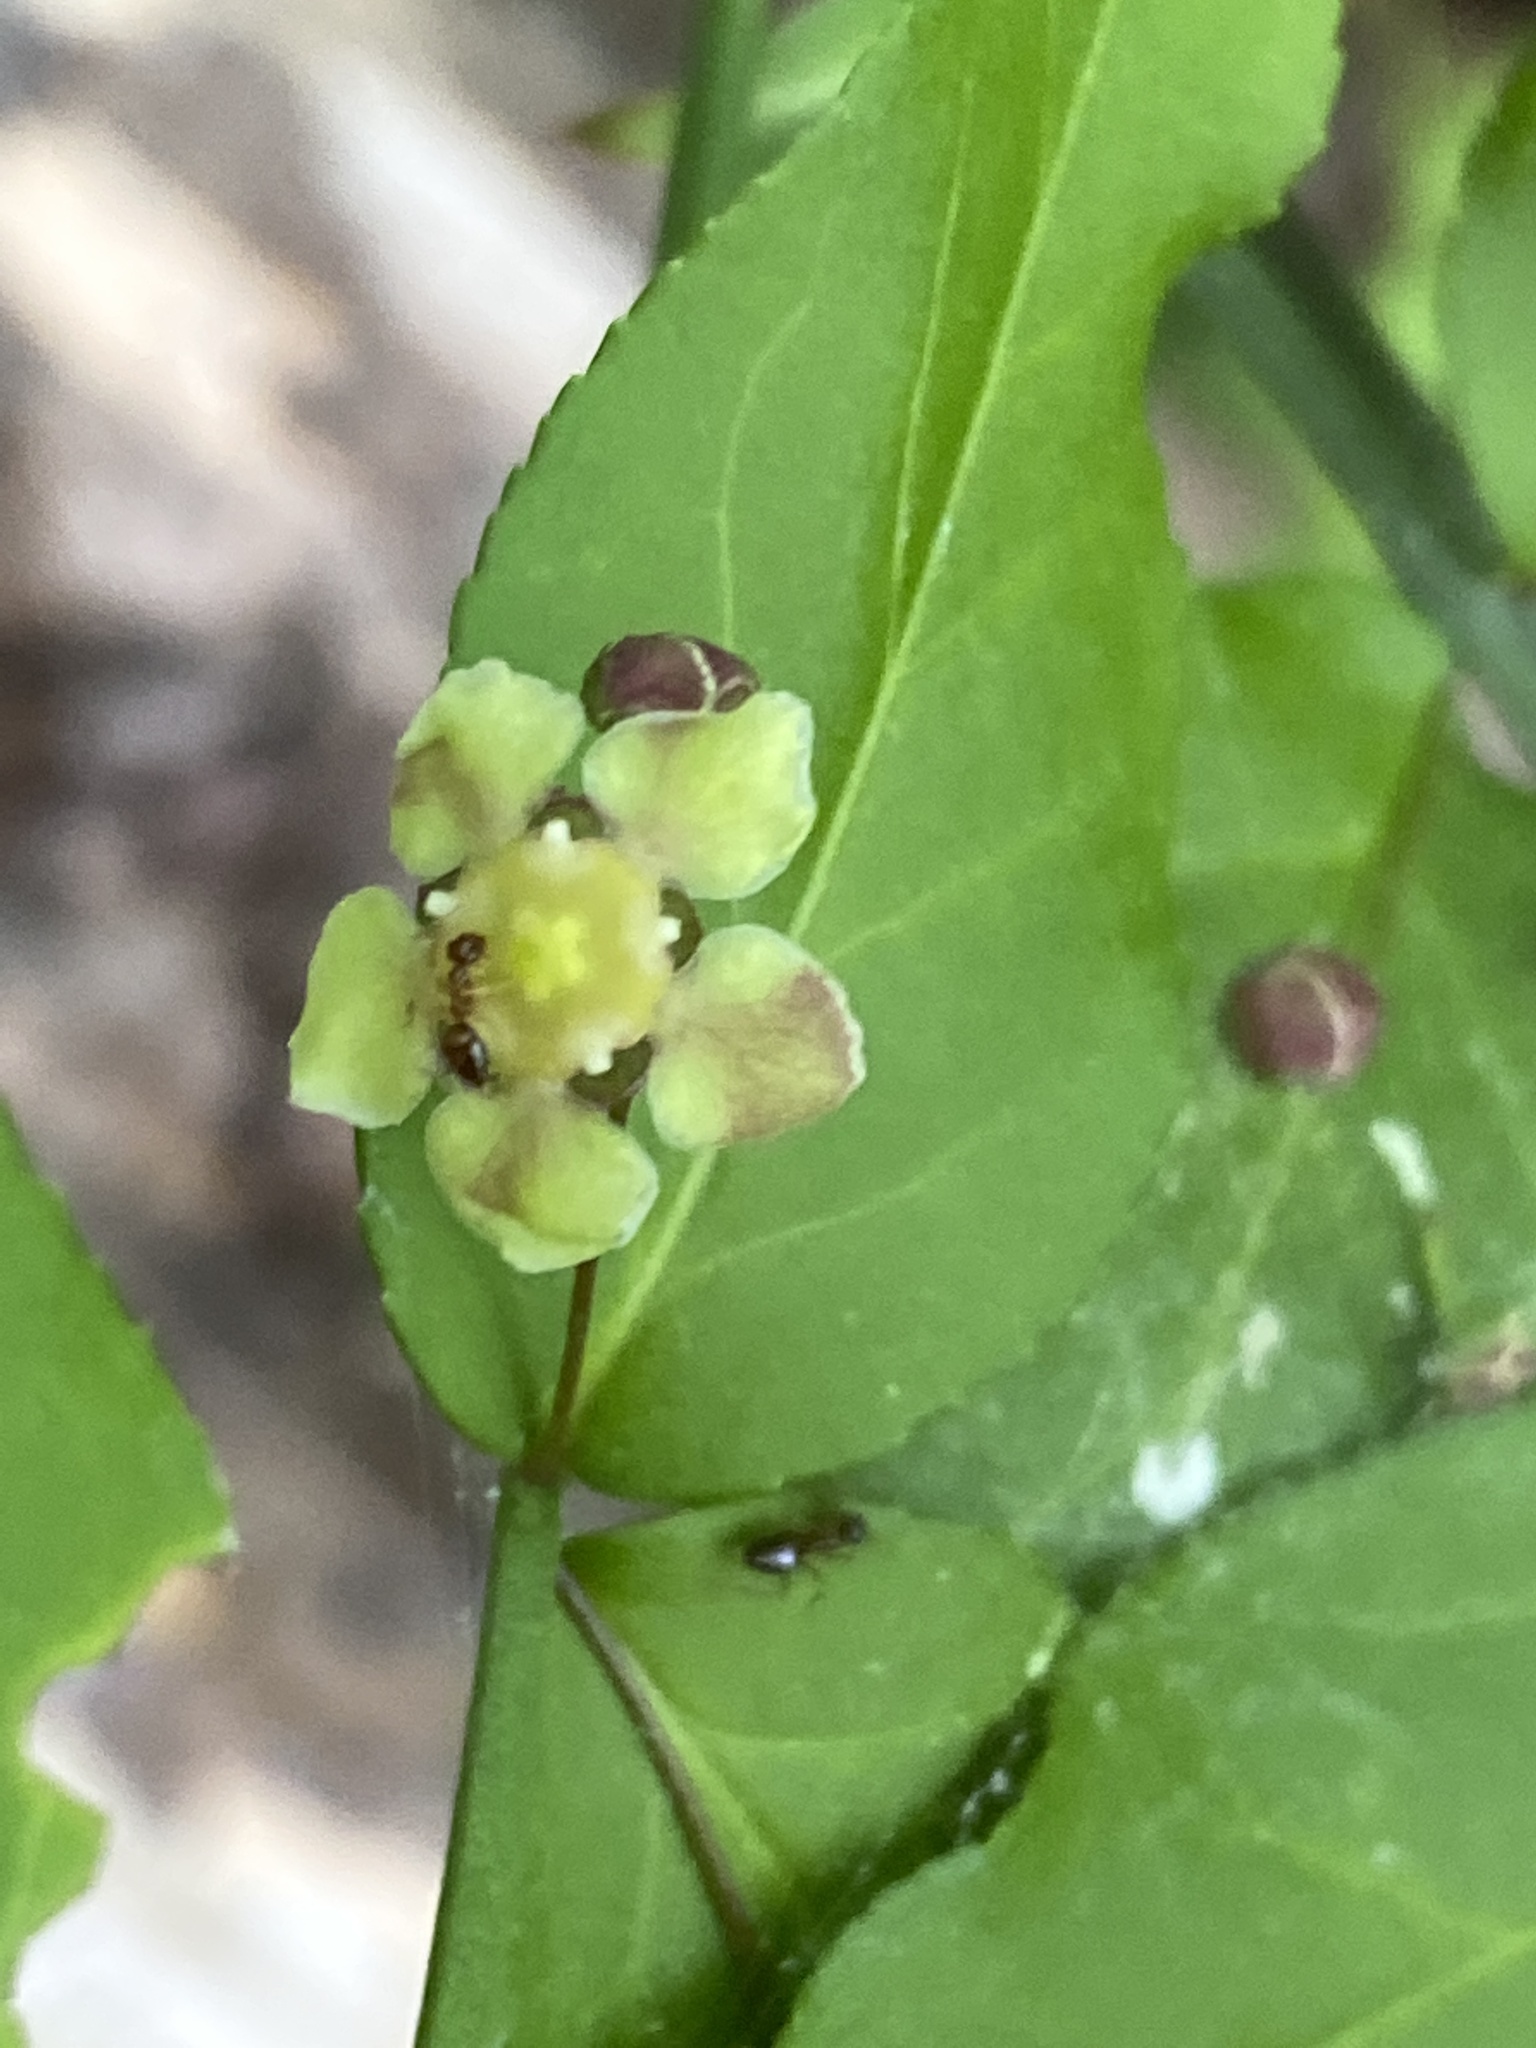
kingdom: Plantae
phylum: Tracheophyta
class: Magnoliopsida
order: Celastrales
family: Celastraceae
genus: Euonymus
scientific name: Euonymus americanus
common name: Bursting-heart
